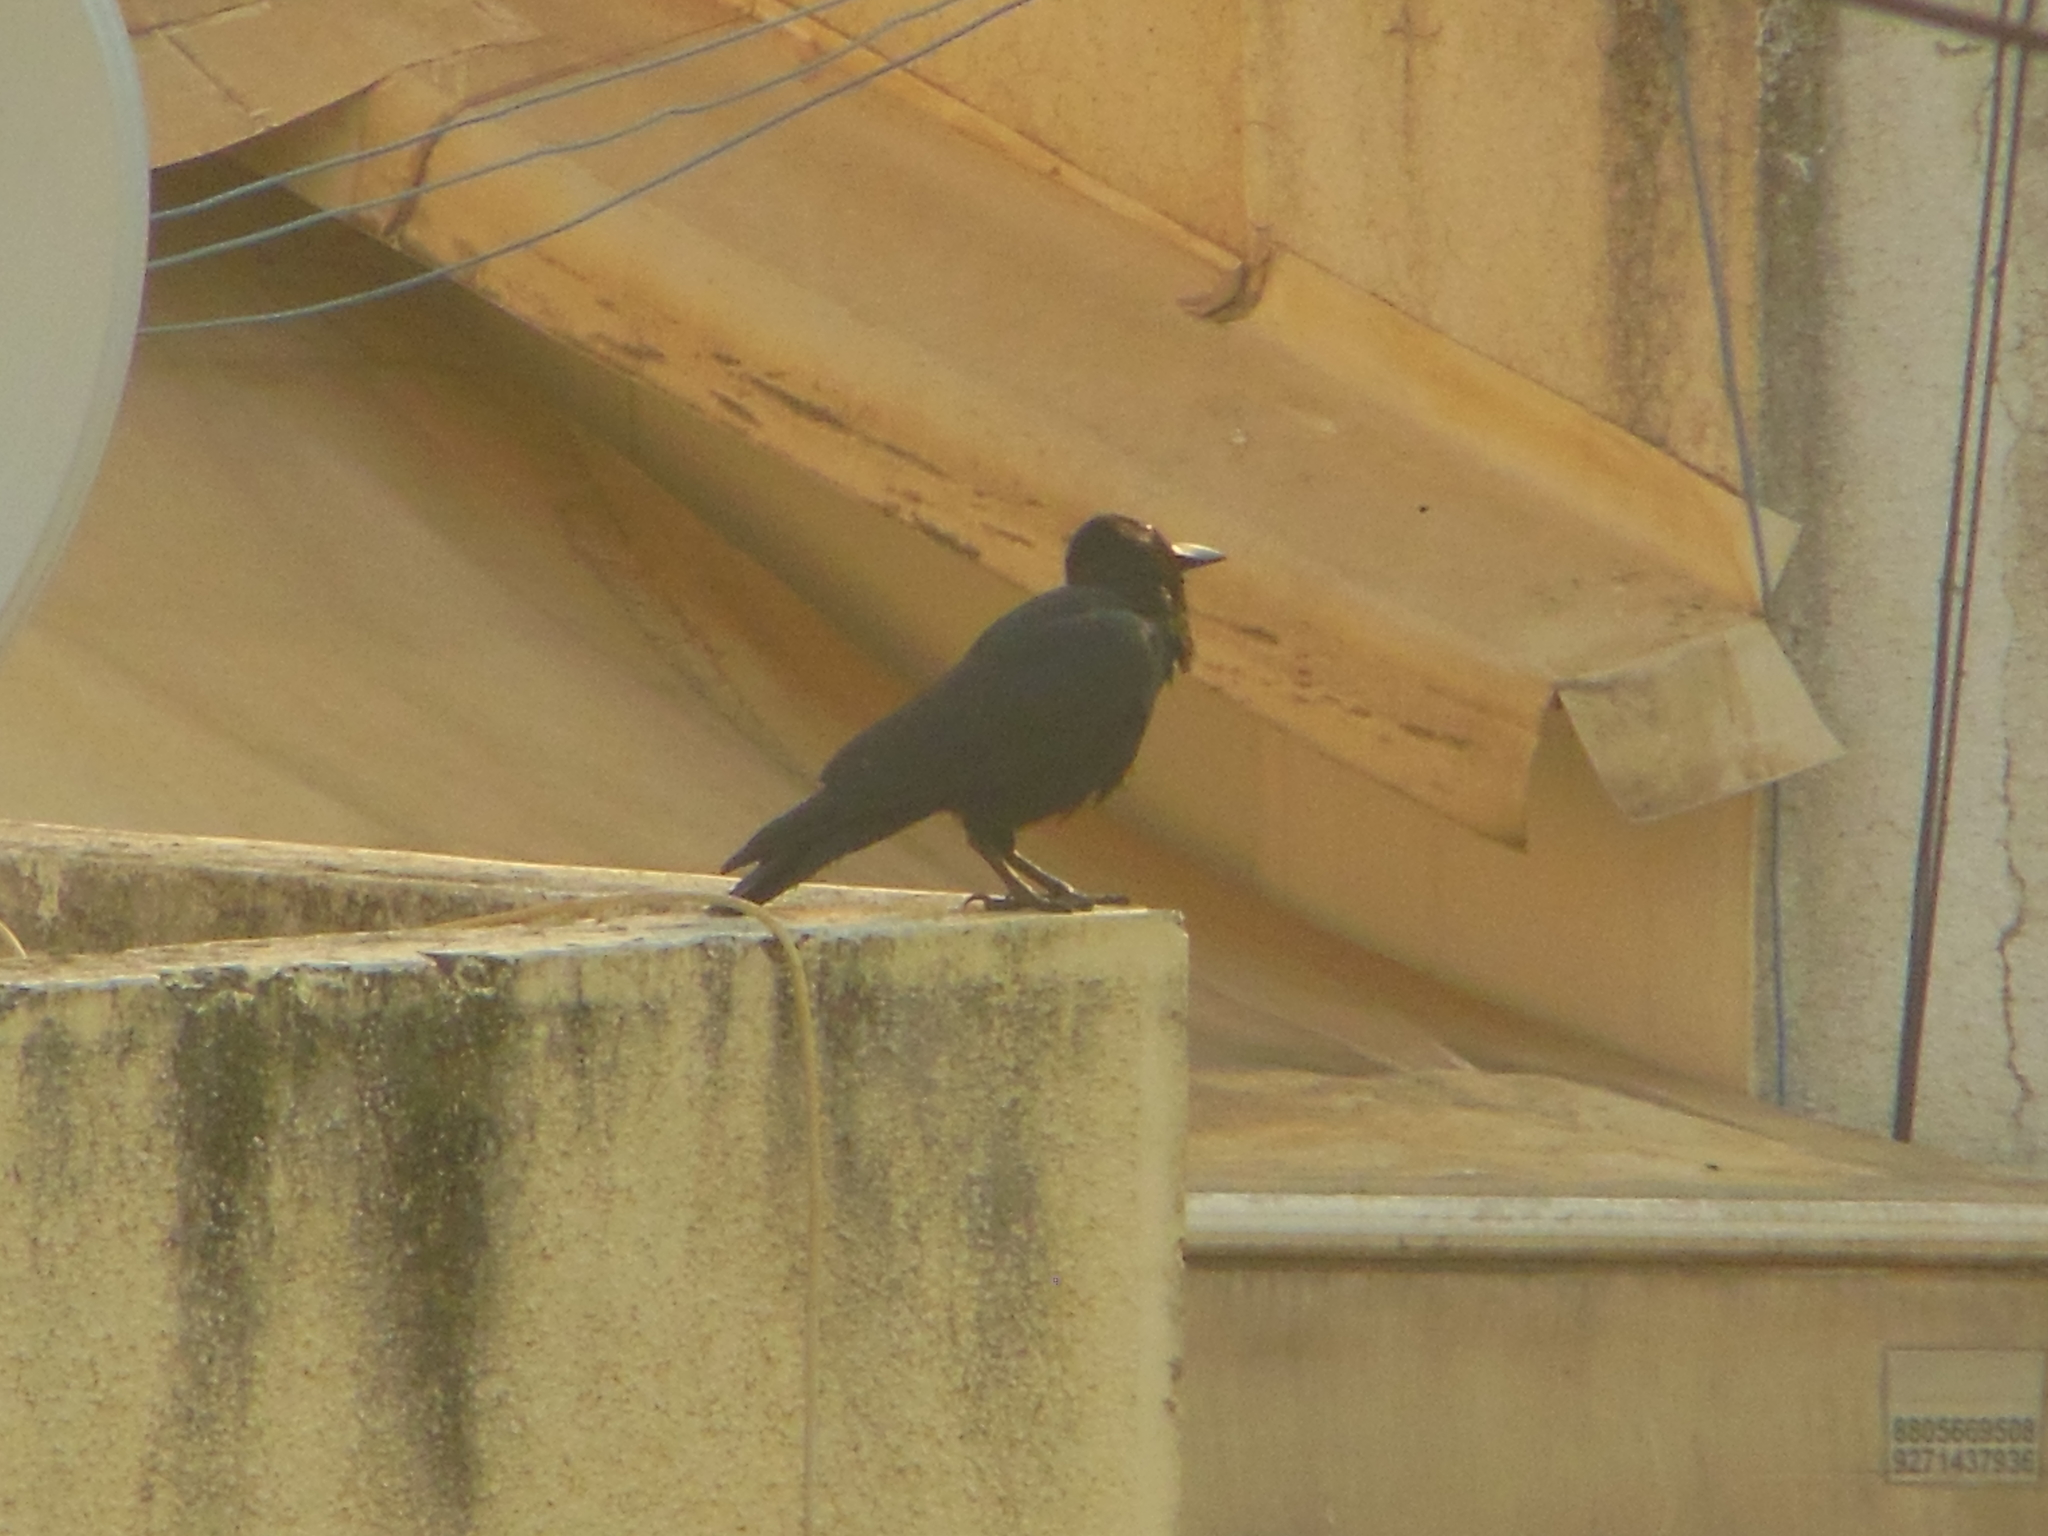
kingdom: Animalia
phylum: Chordata
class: Aves
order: Passeriformes
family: Corvidae
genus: Corvus
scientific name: Corvus macrorhynchos
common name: Large-billed crow
